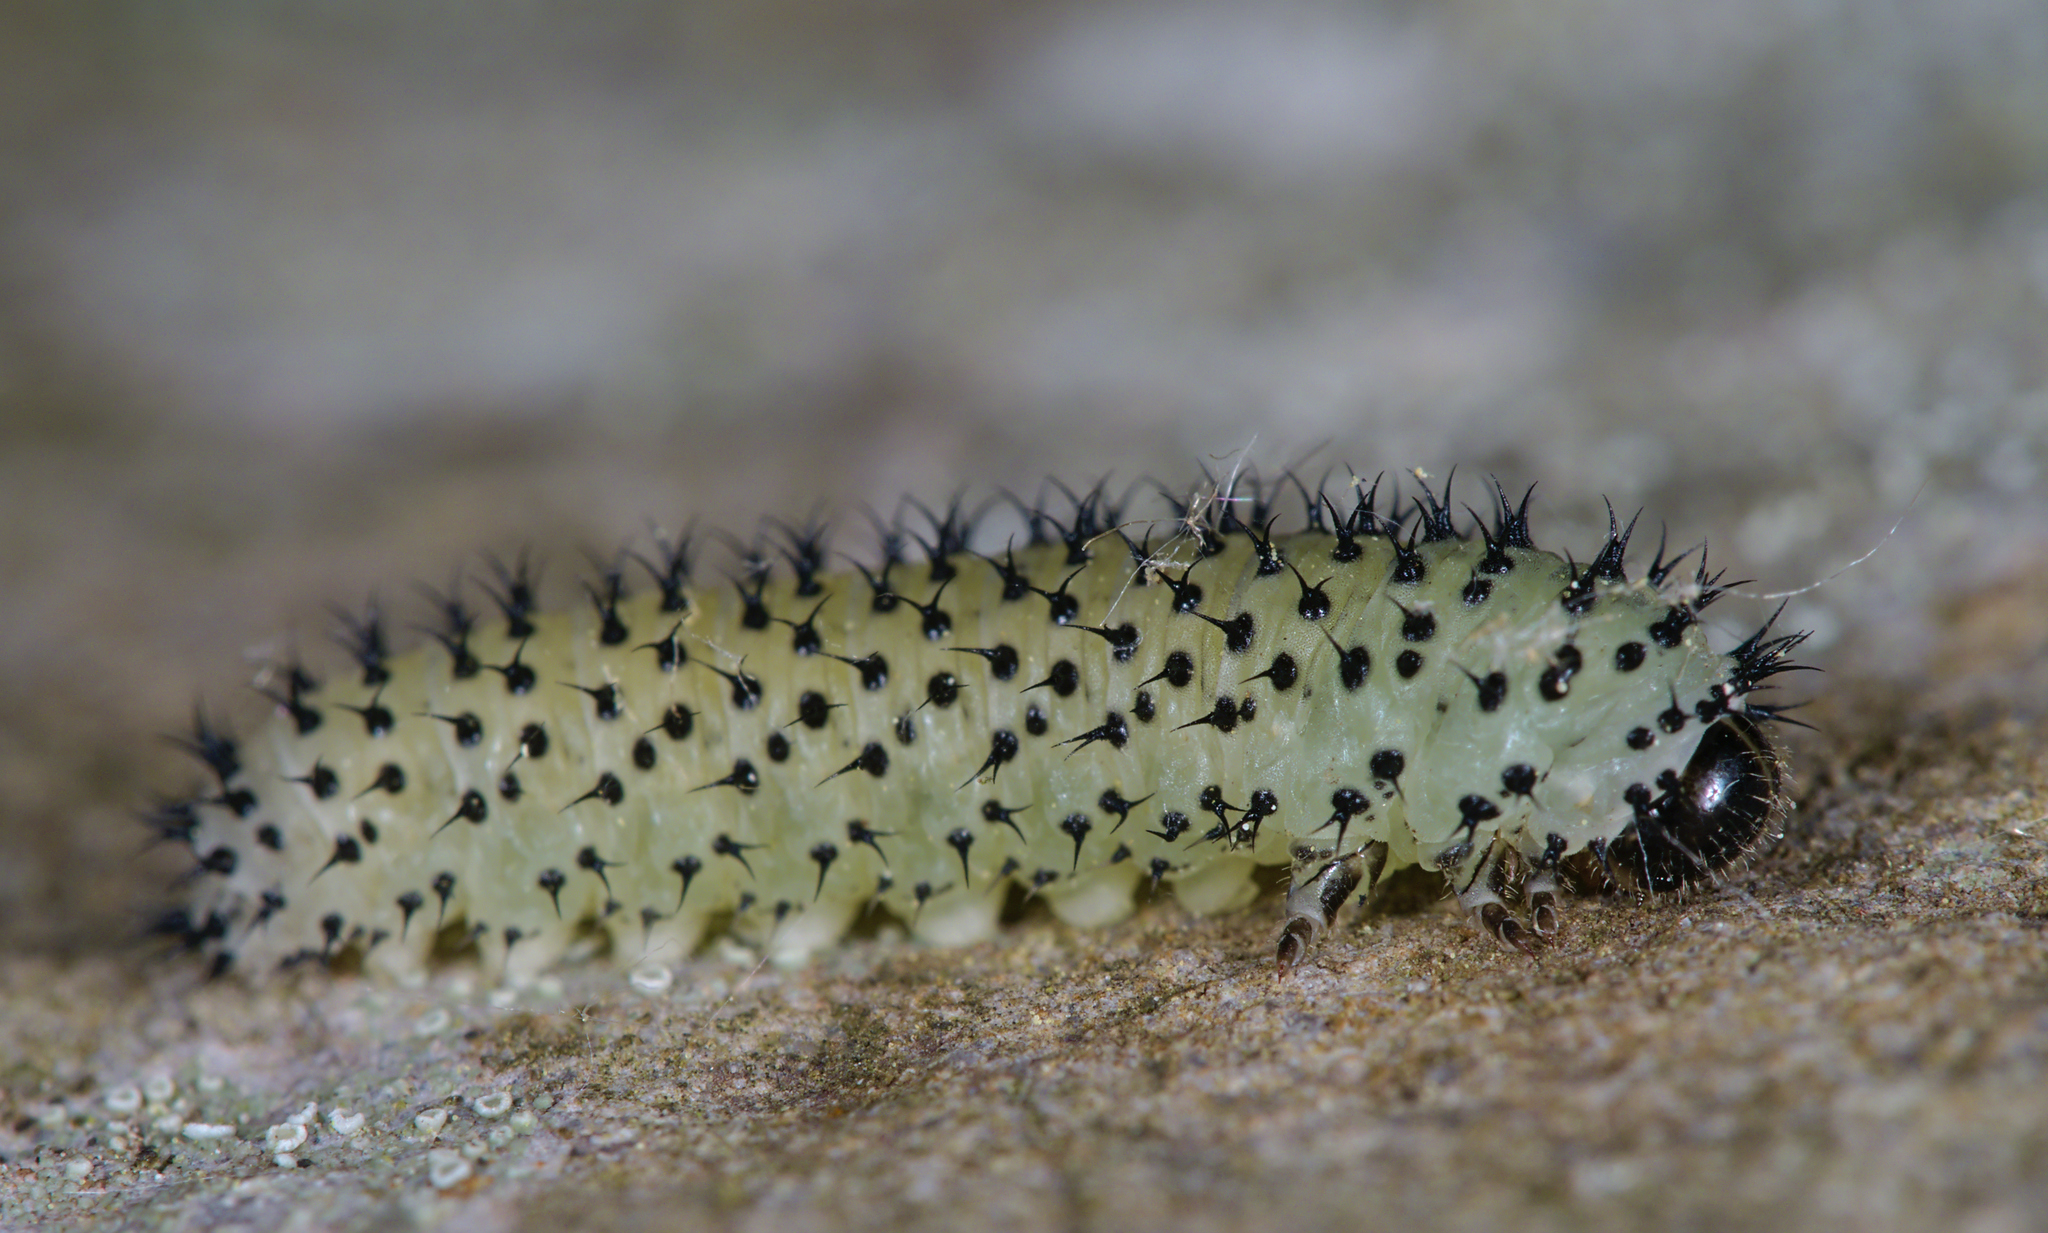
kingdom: Animalia
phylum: Arthropoda
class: Insecta
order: Hymenoptera
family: Tenthredinidae
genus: Periclista
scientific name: Periclista albida
